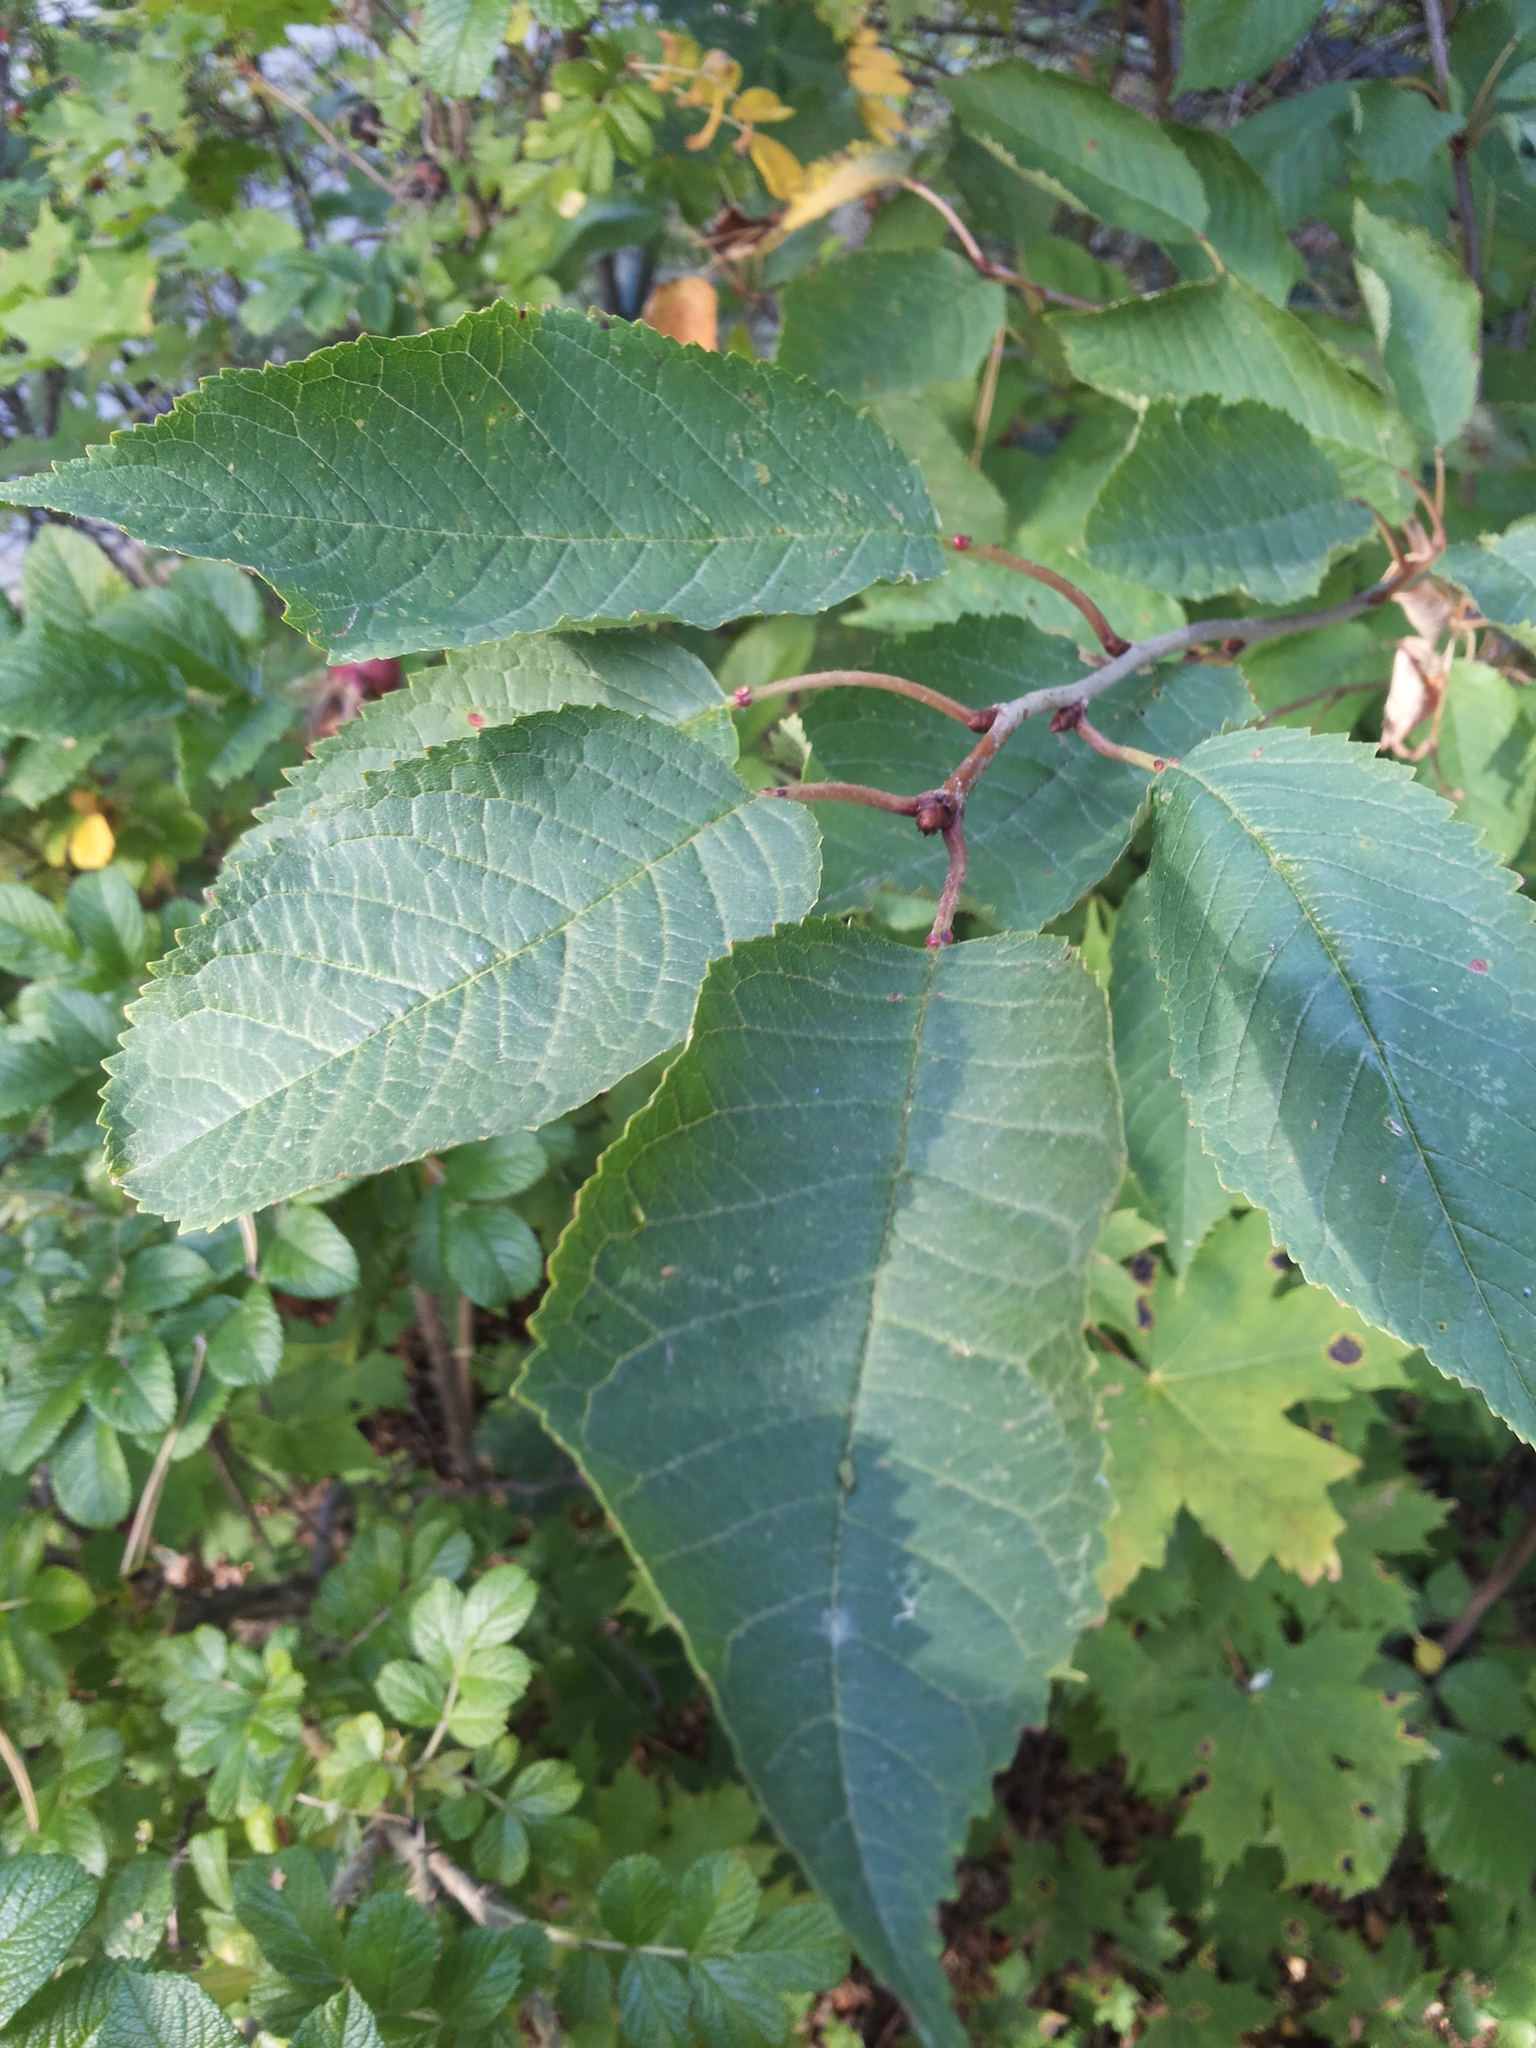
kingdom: Plantae
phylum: Tracheophyta
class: Magnoliopsida
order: Rosales
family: Rosaceae
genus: Prunus
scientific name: Prunus avium
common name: Sweet cherry
